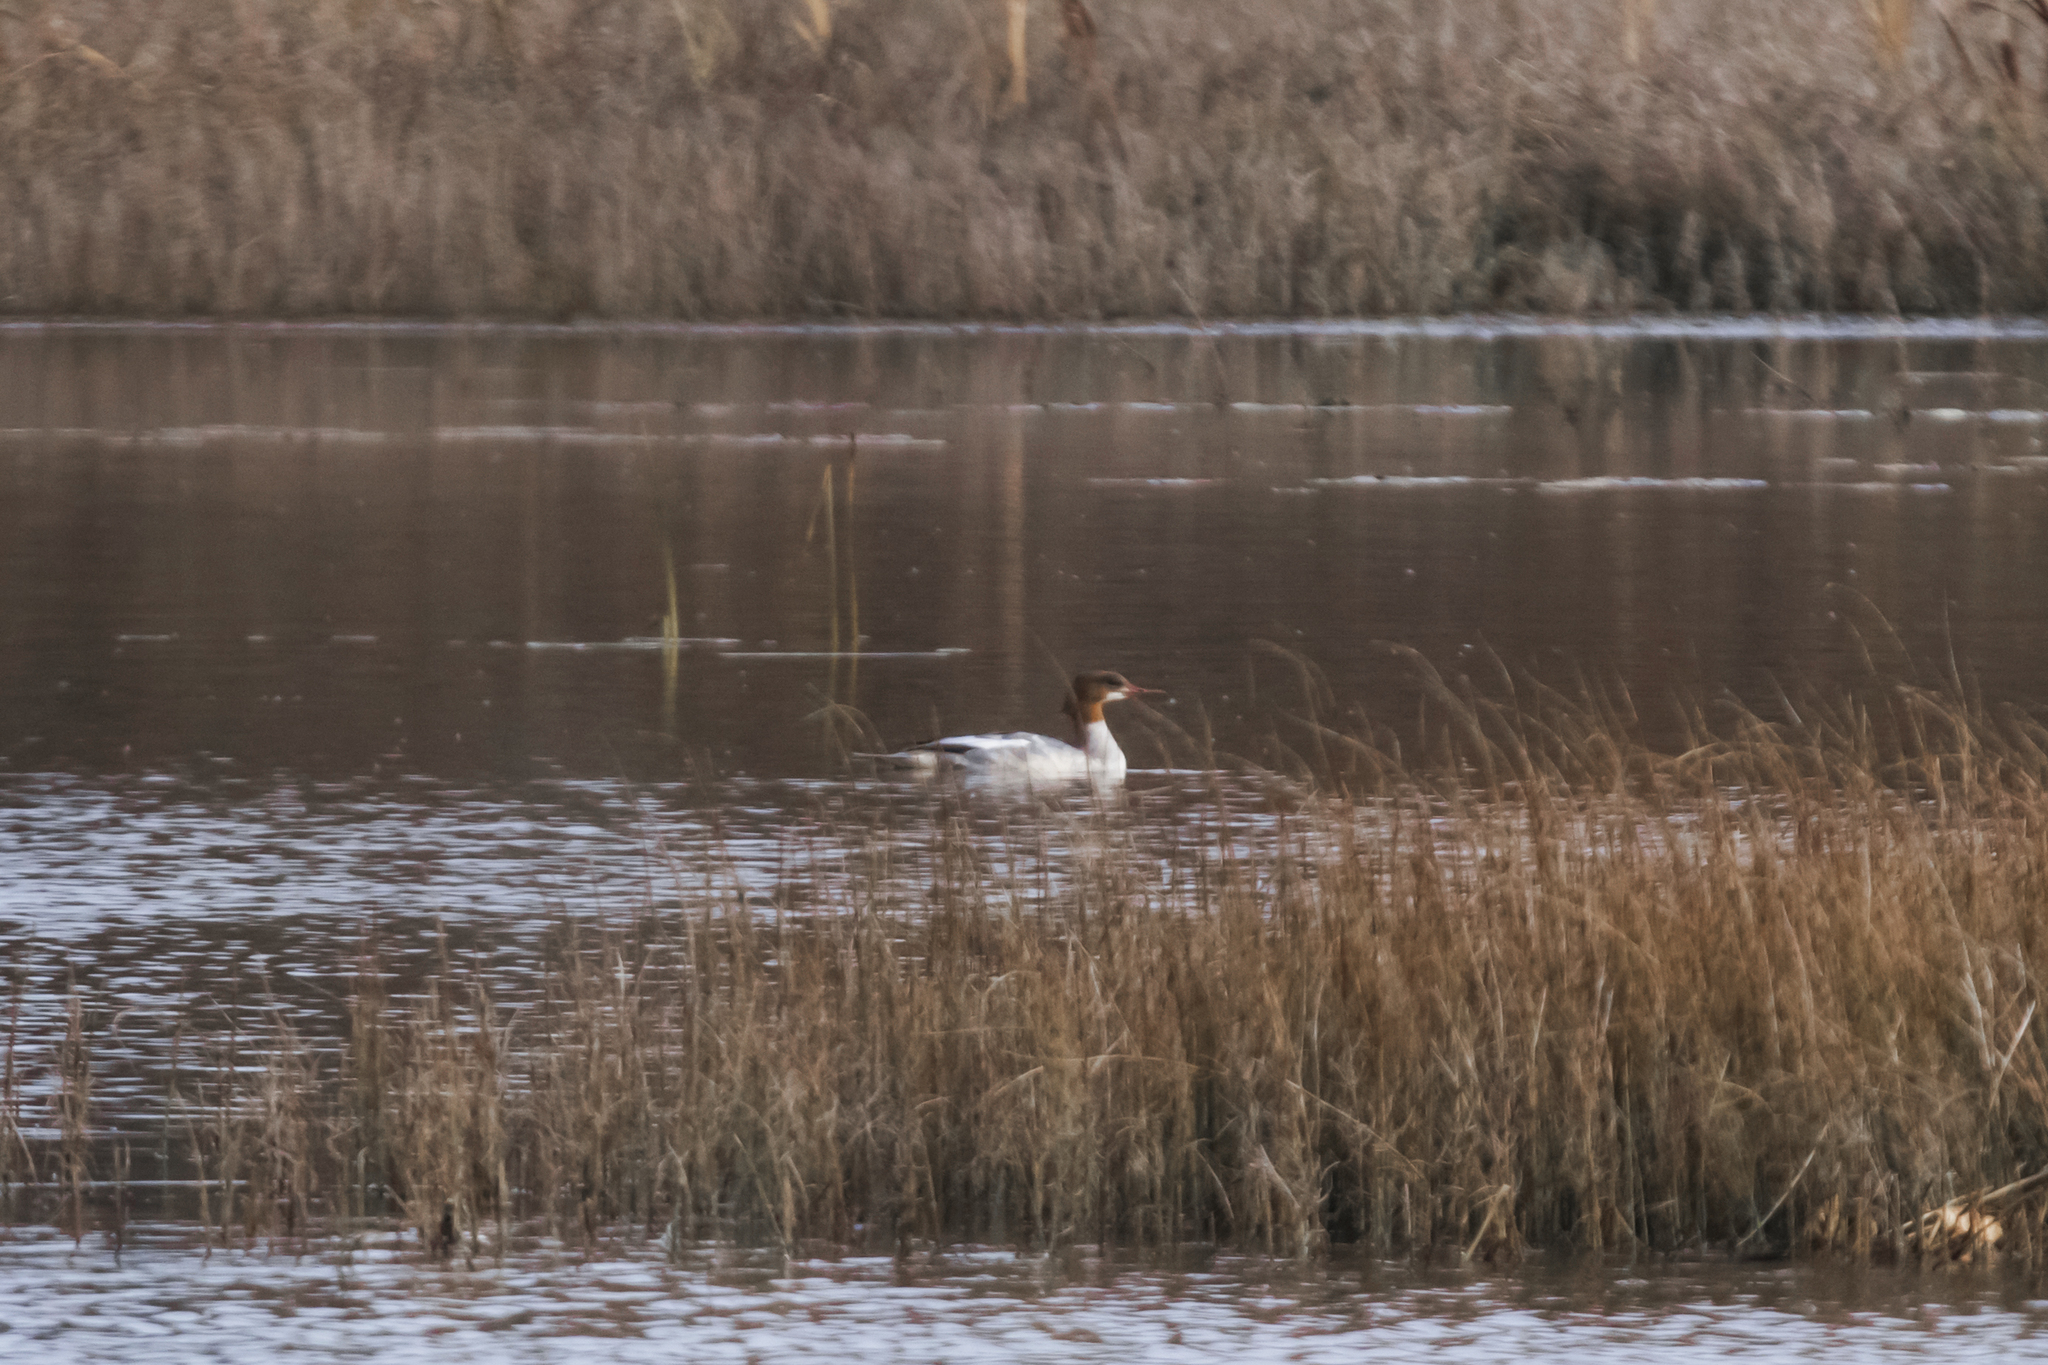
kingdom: Animalia
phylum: Chordata
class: Aves
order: Anseriformes
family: Anatidae
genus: Mergus
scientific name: Mergus merganser
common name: Common merganser
